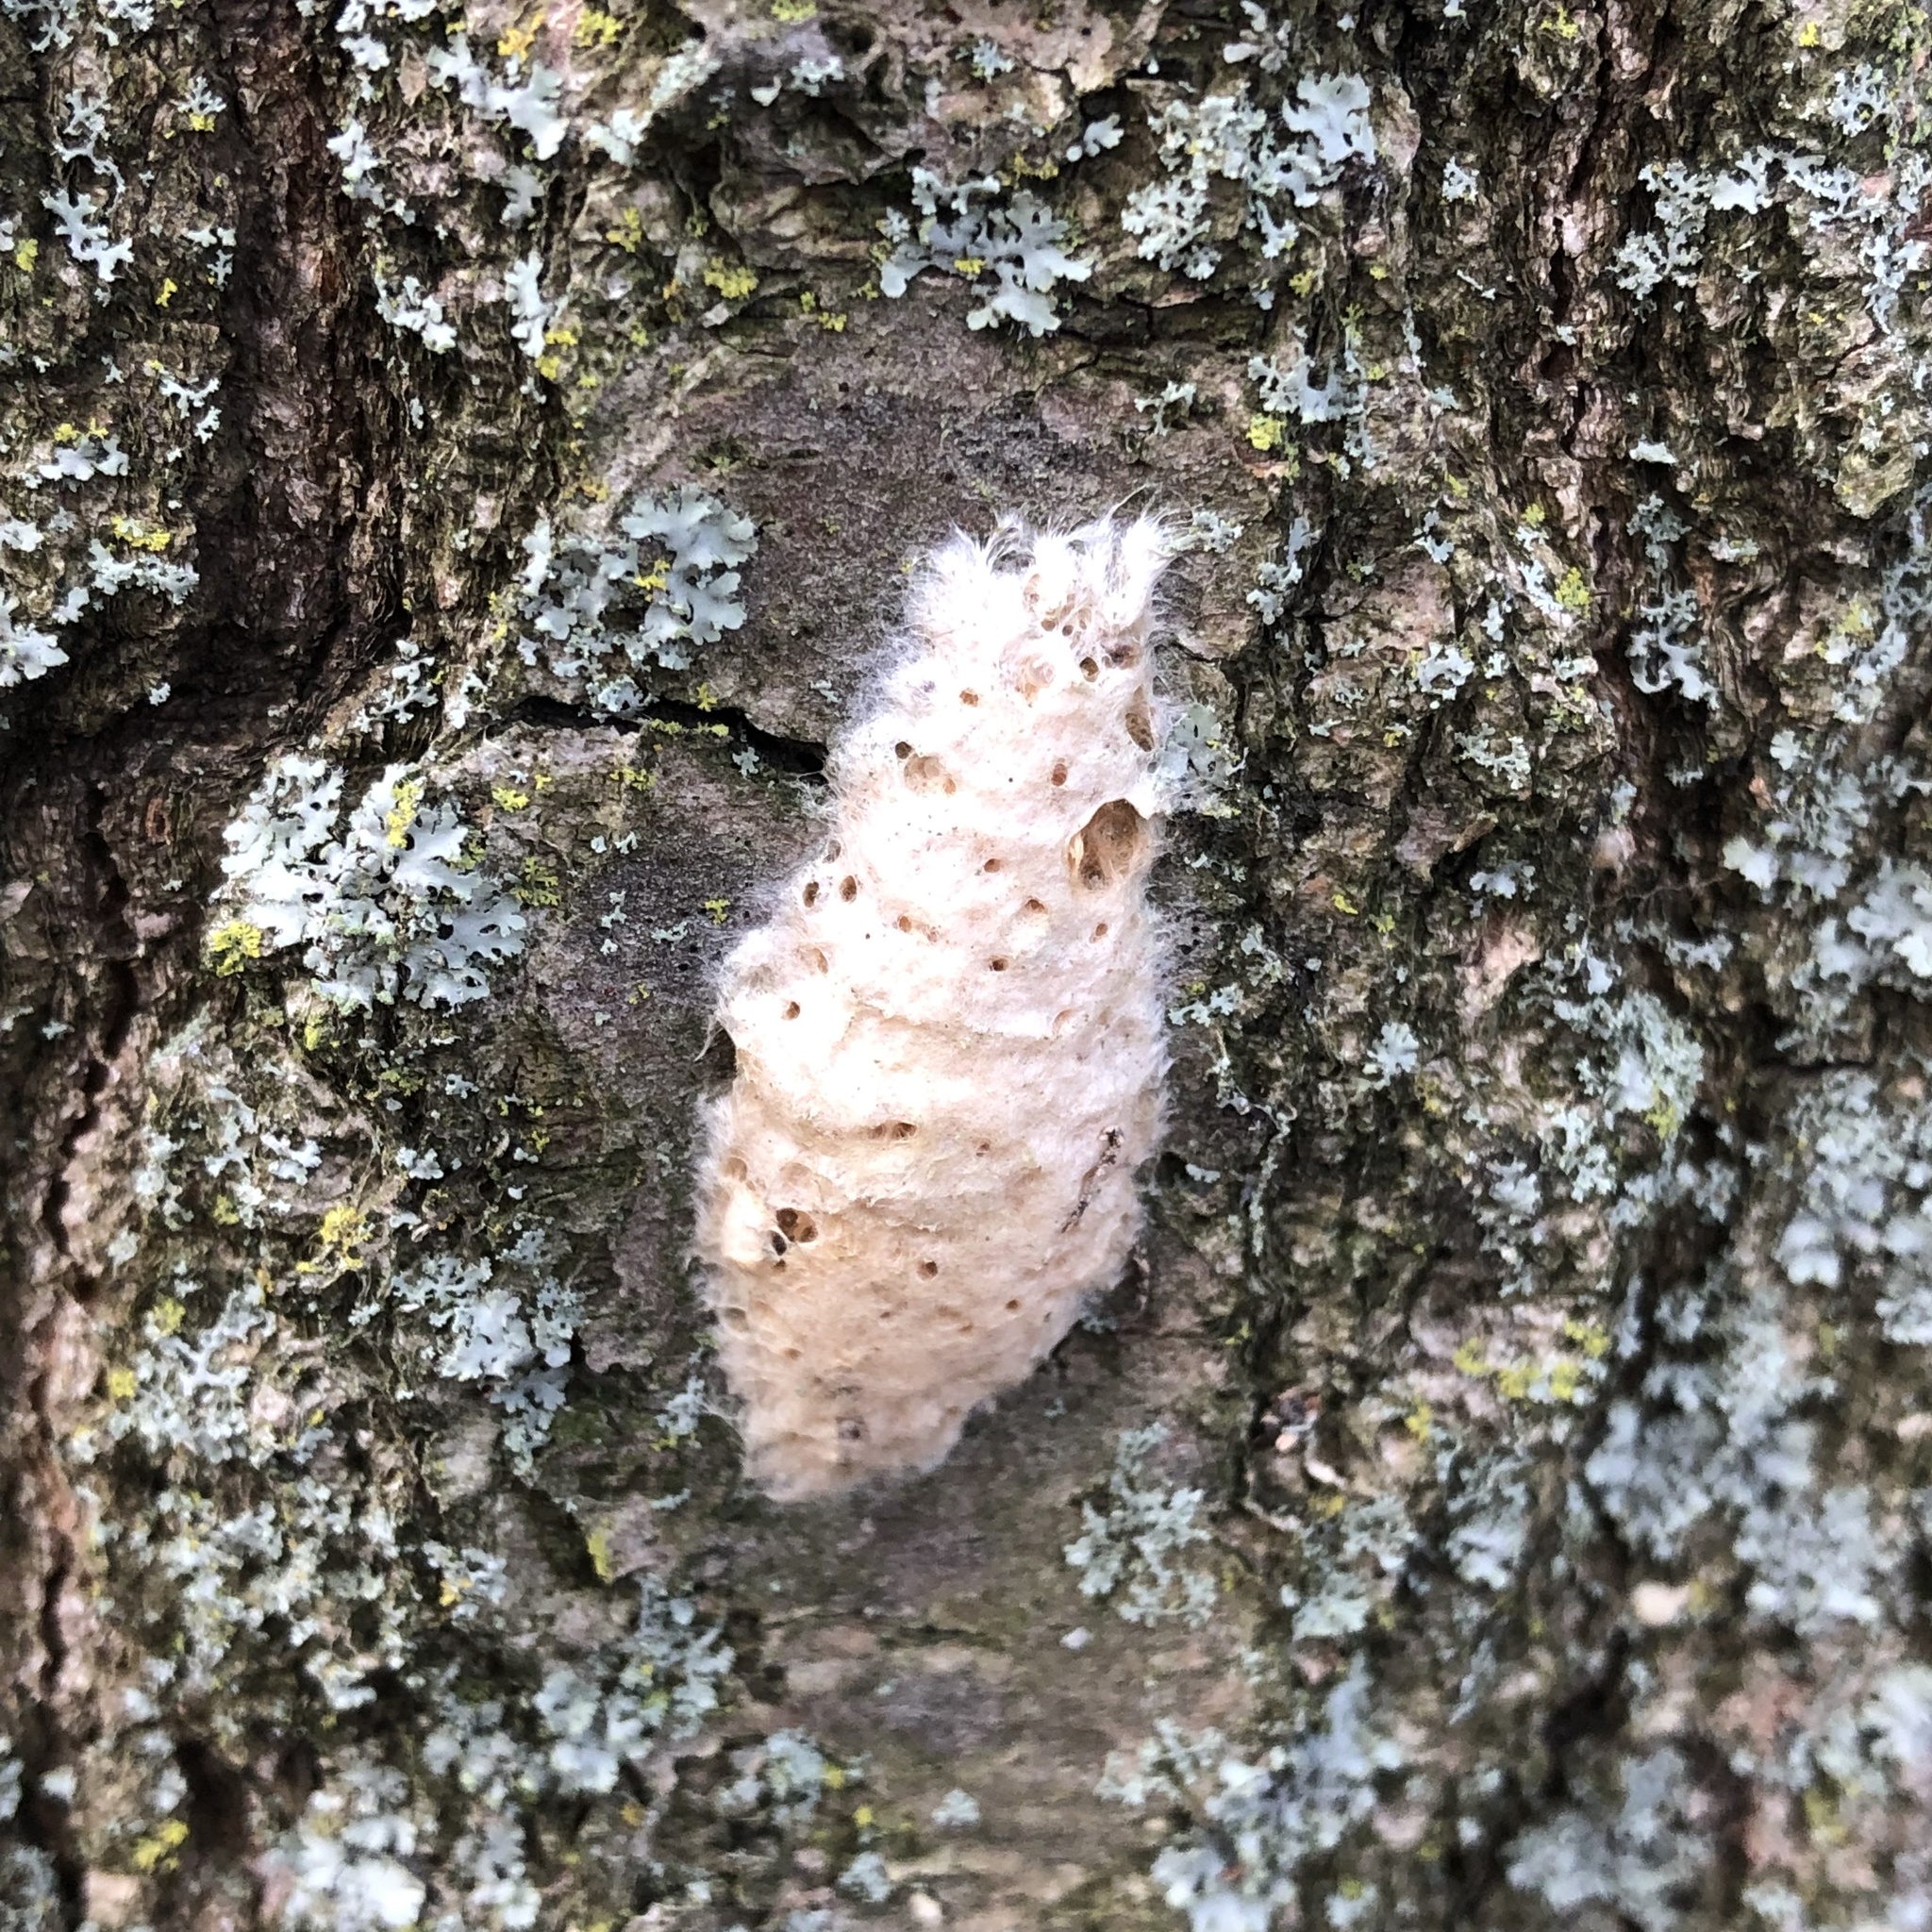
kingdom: Animalia
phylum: Arthropoda
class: Insecta
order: Lepidoptera
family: Erebidae
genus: Lymantria
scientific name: Lymantria dispar
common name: Gypsy moth
